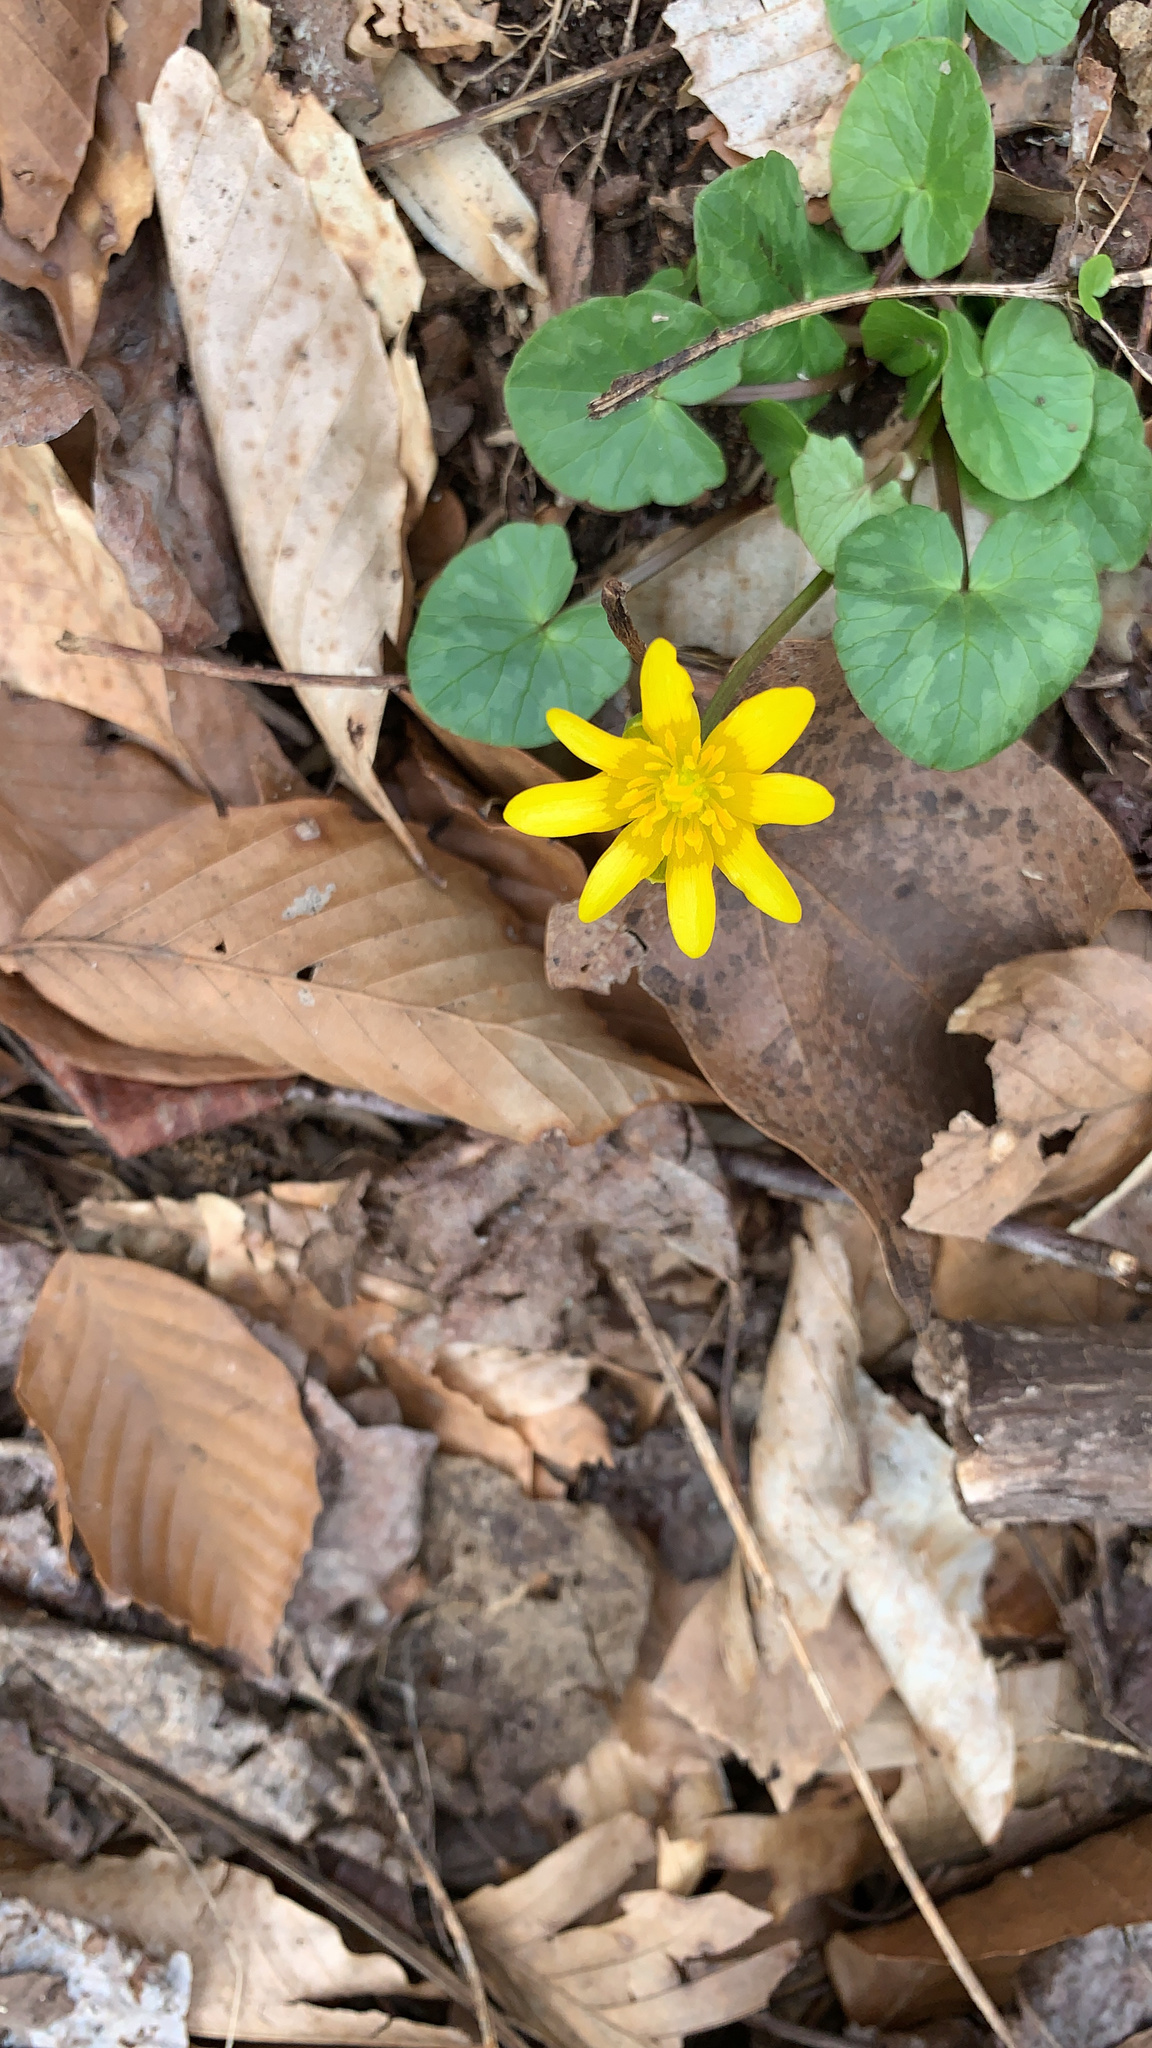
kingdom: Plantae
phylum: Tracheophyta
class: Magnoliopsida
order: Ranunculales
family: Ranunculaceae
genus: Ficaria
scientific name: Ficaria verna
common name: Lesser celandine
